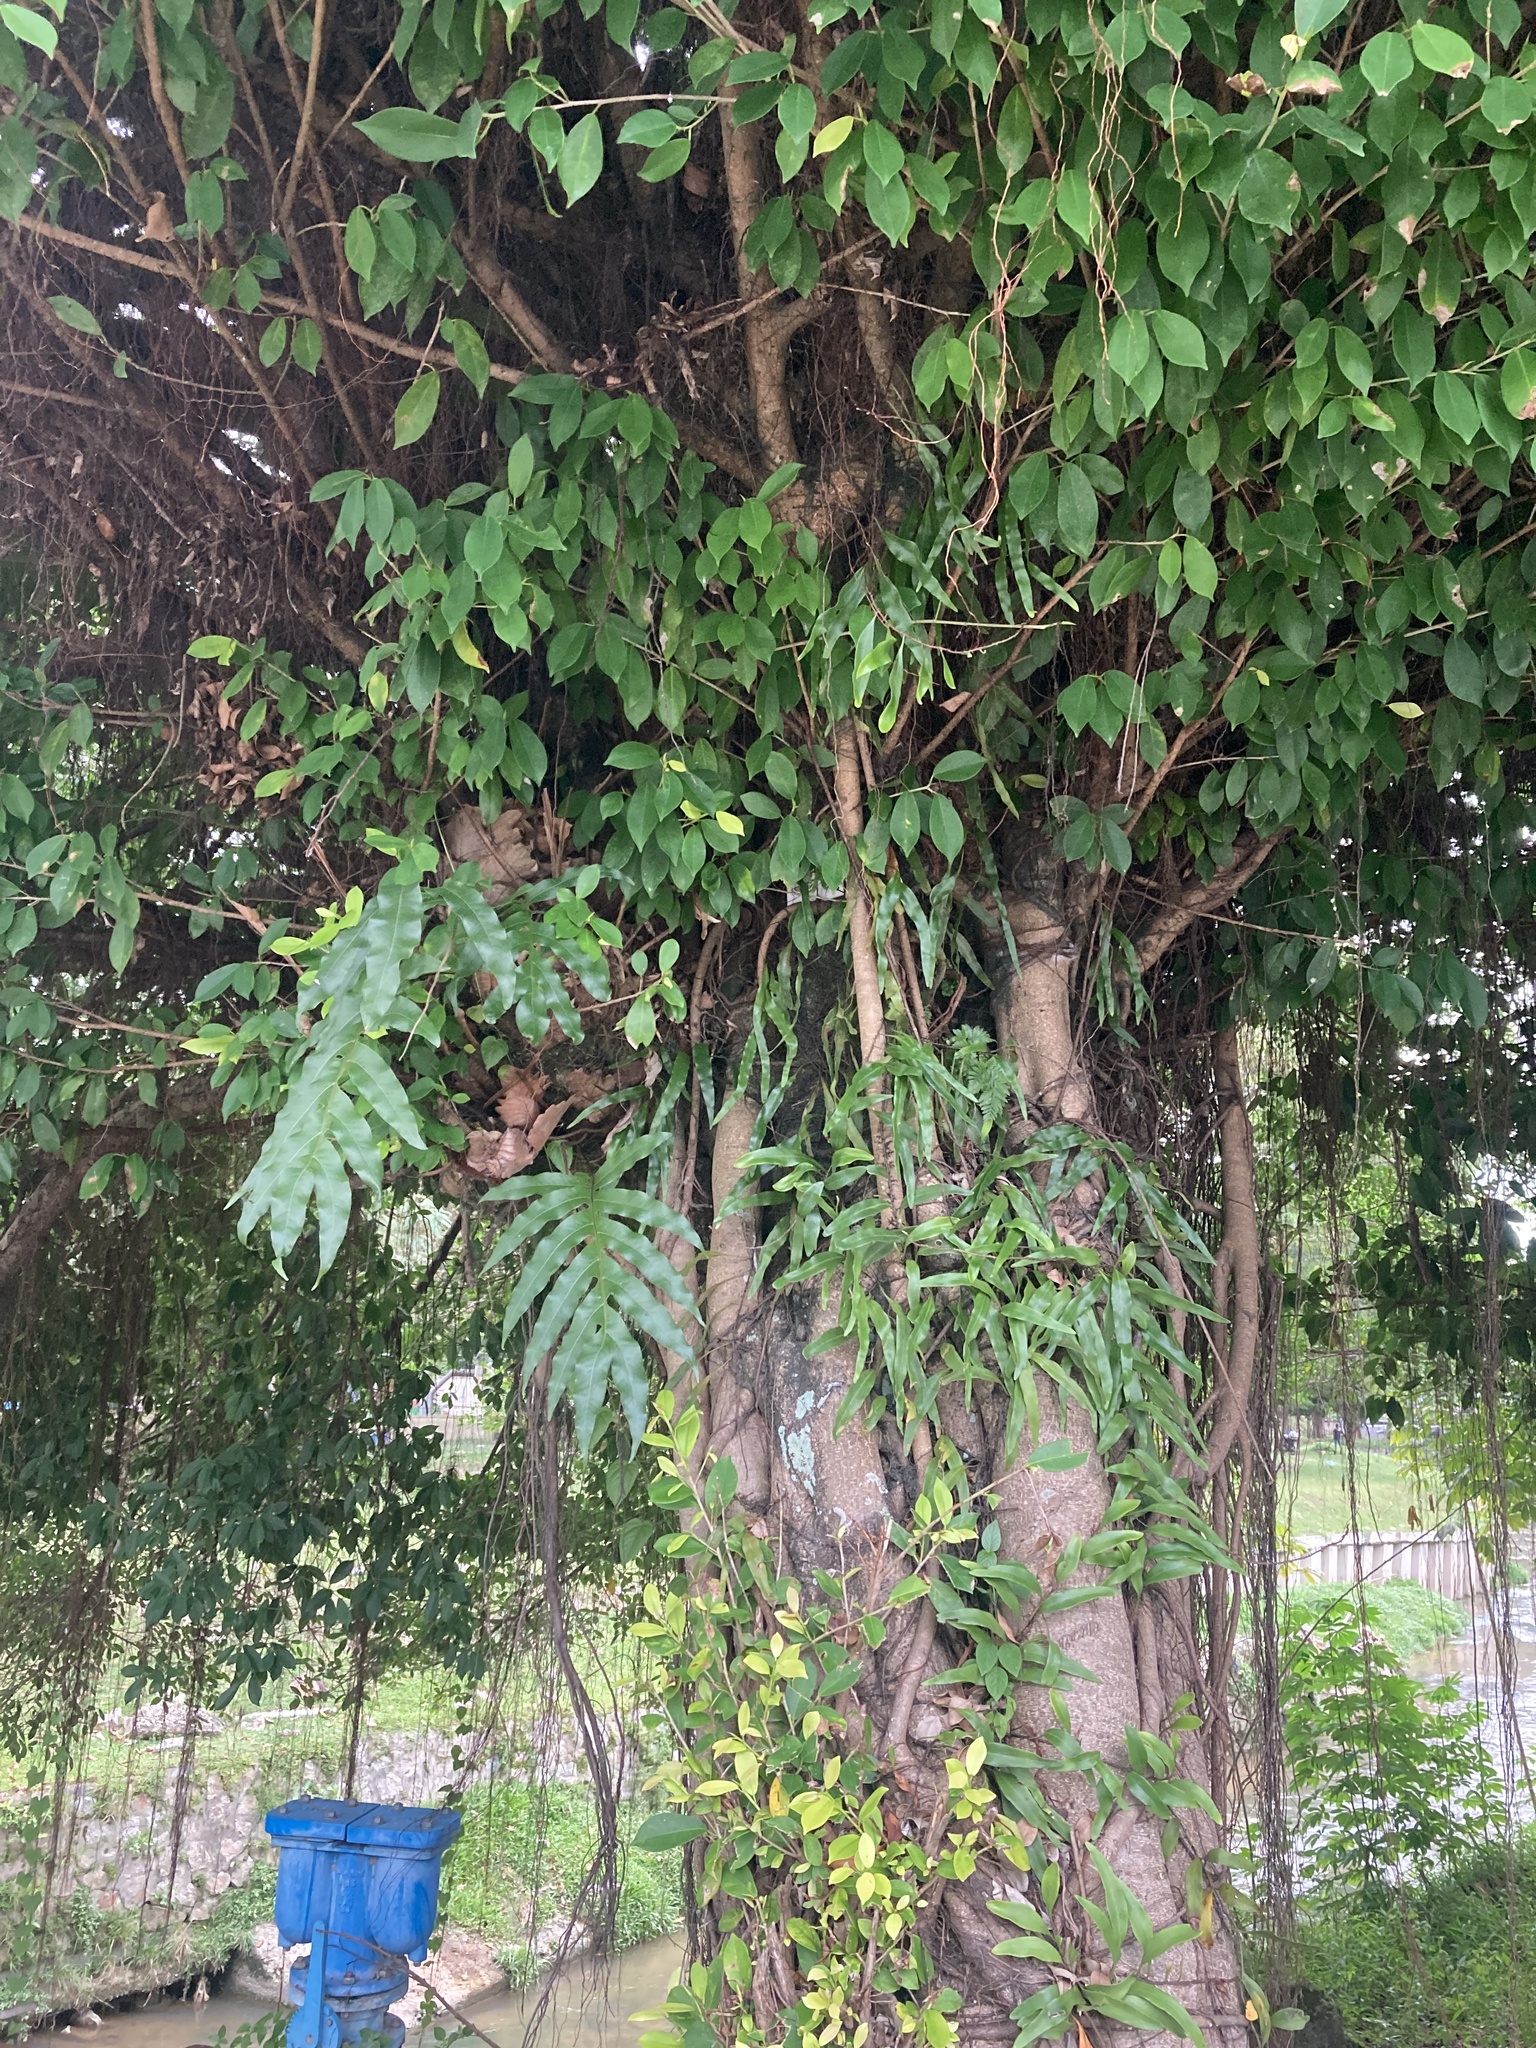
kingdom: Plantae
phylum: Tracheophyta
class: Magnoliopsida
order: Rosales
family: Moraceae
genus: Ficus
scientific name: Ficus microcarpa
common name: Chinese banyan
